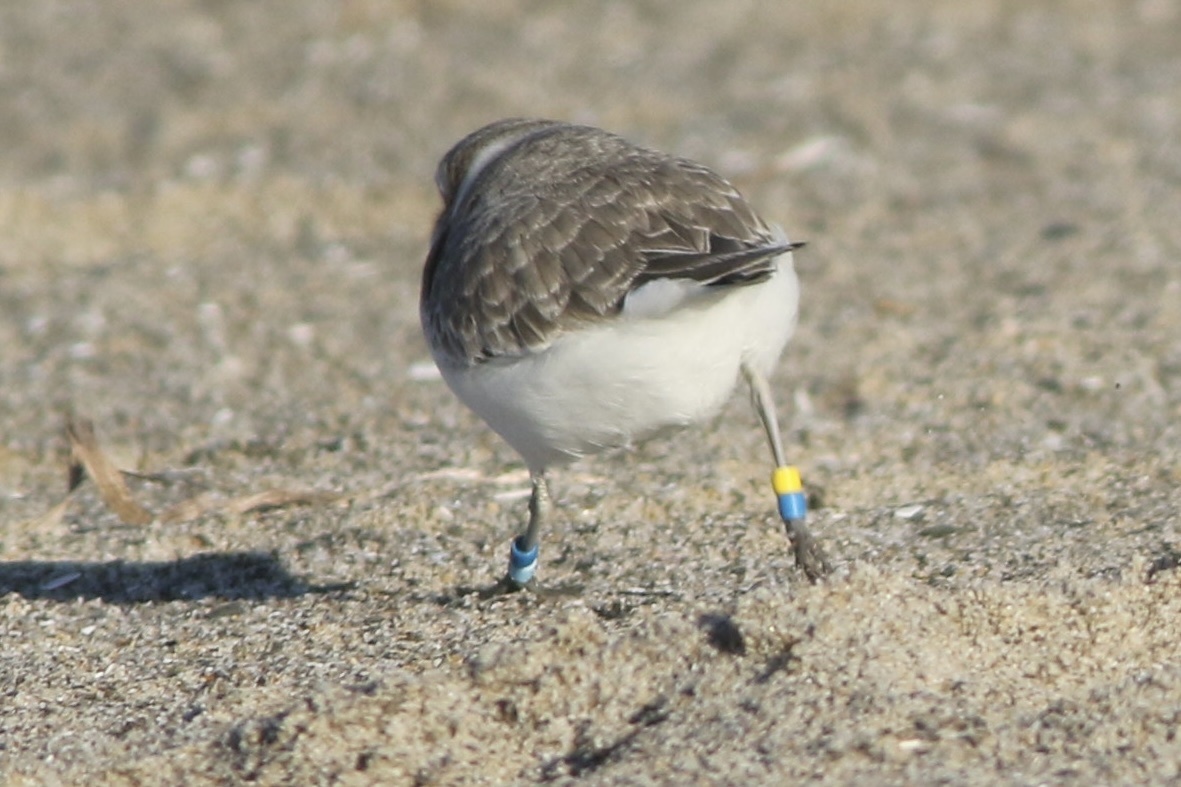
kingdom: Animalia
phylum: Chordata
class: Aves
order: Charadriiformes
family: Charadriidae
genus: Anarhynchus
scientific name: Anarhynchus
